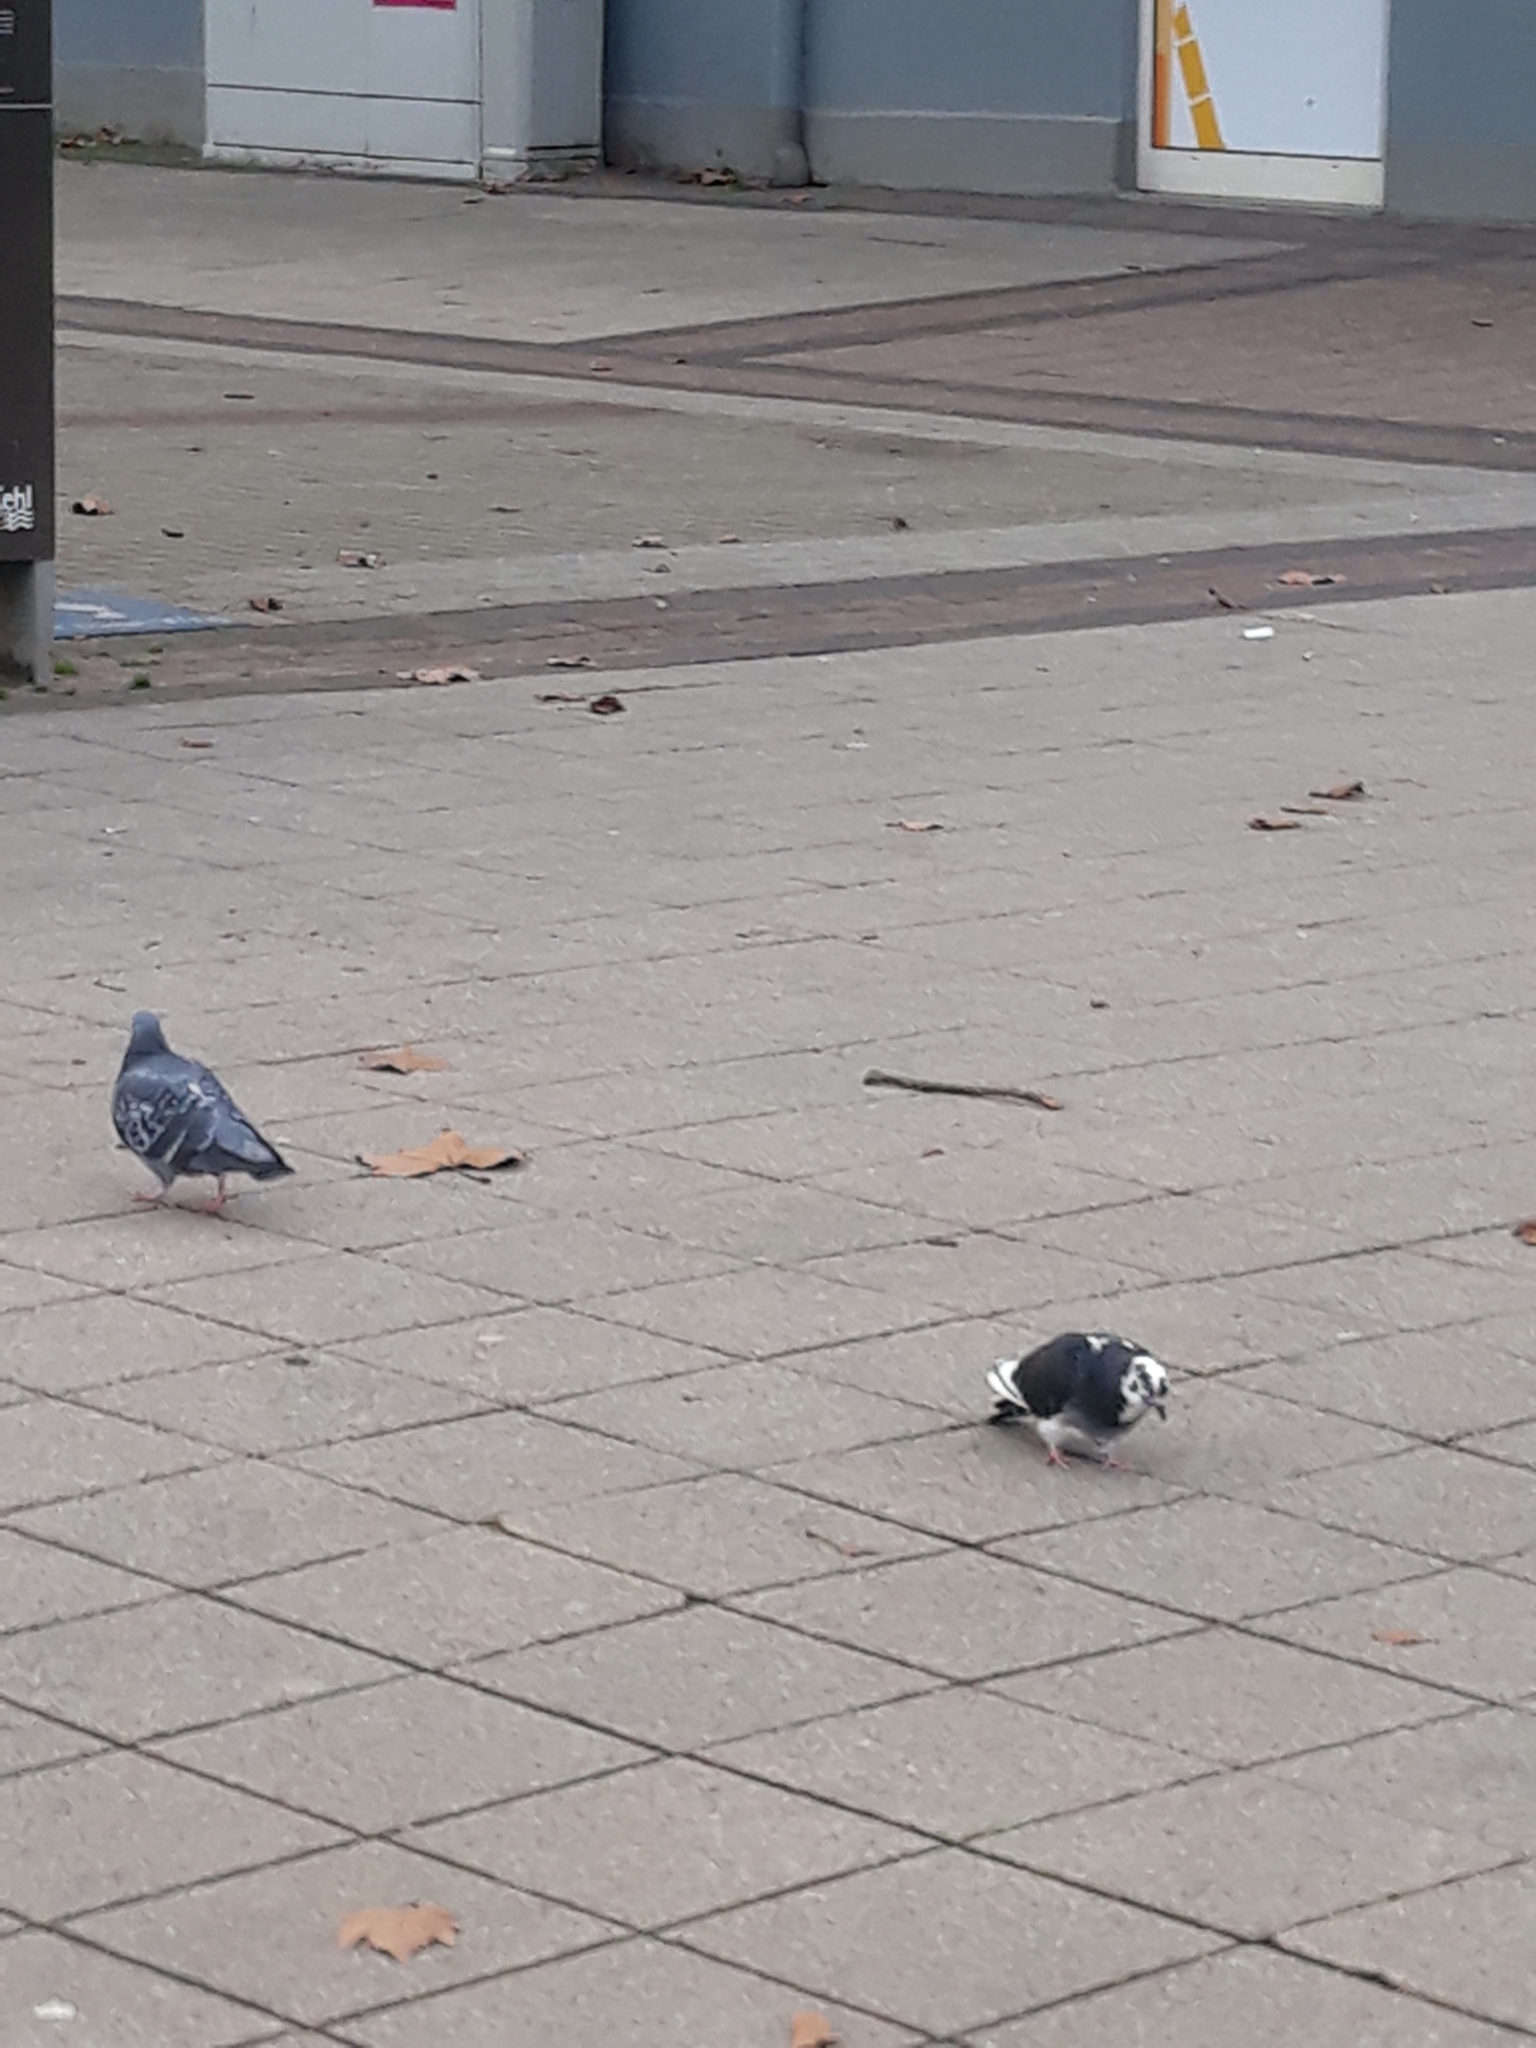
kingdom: Animalia
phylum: Chordata
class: Aves
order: Columbiformes
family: Columbidae
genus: Columba
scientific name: Columba livia
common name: Rock pigeon
